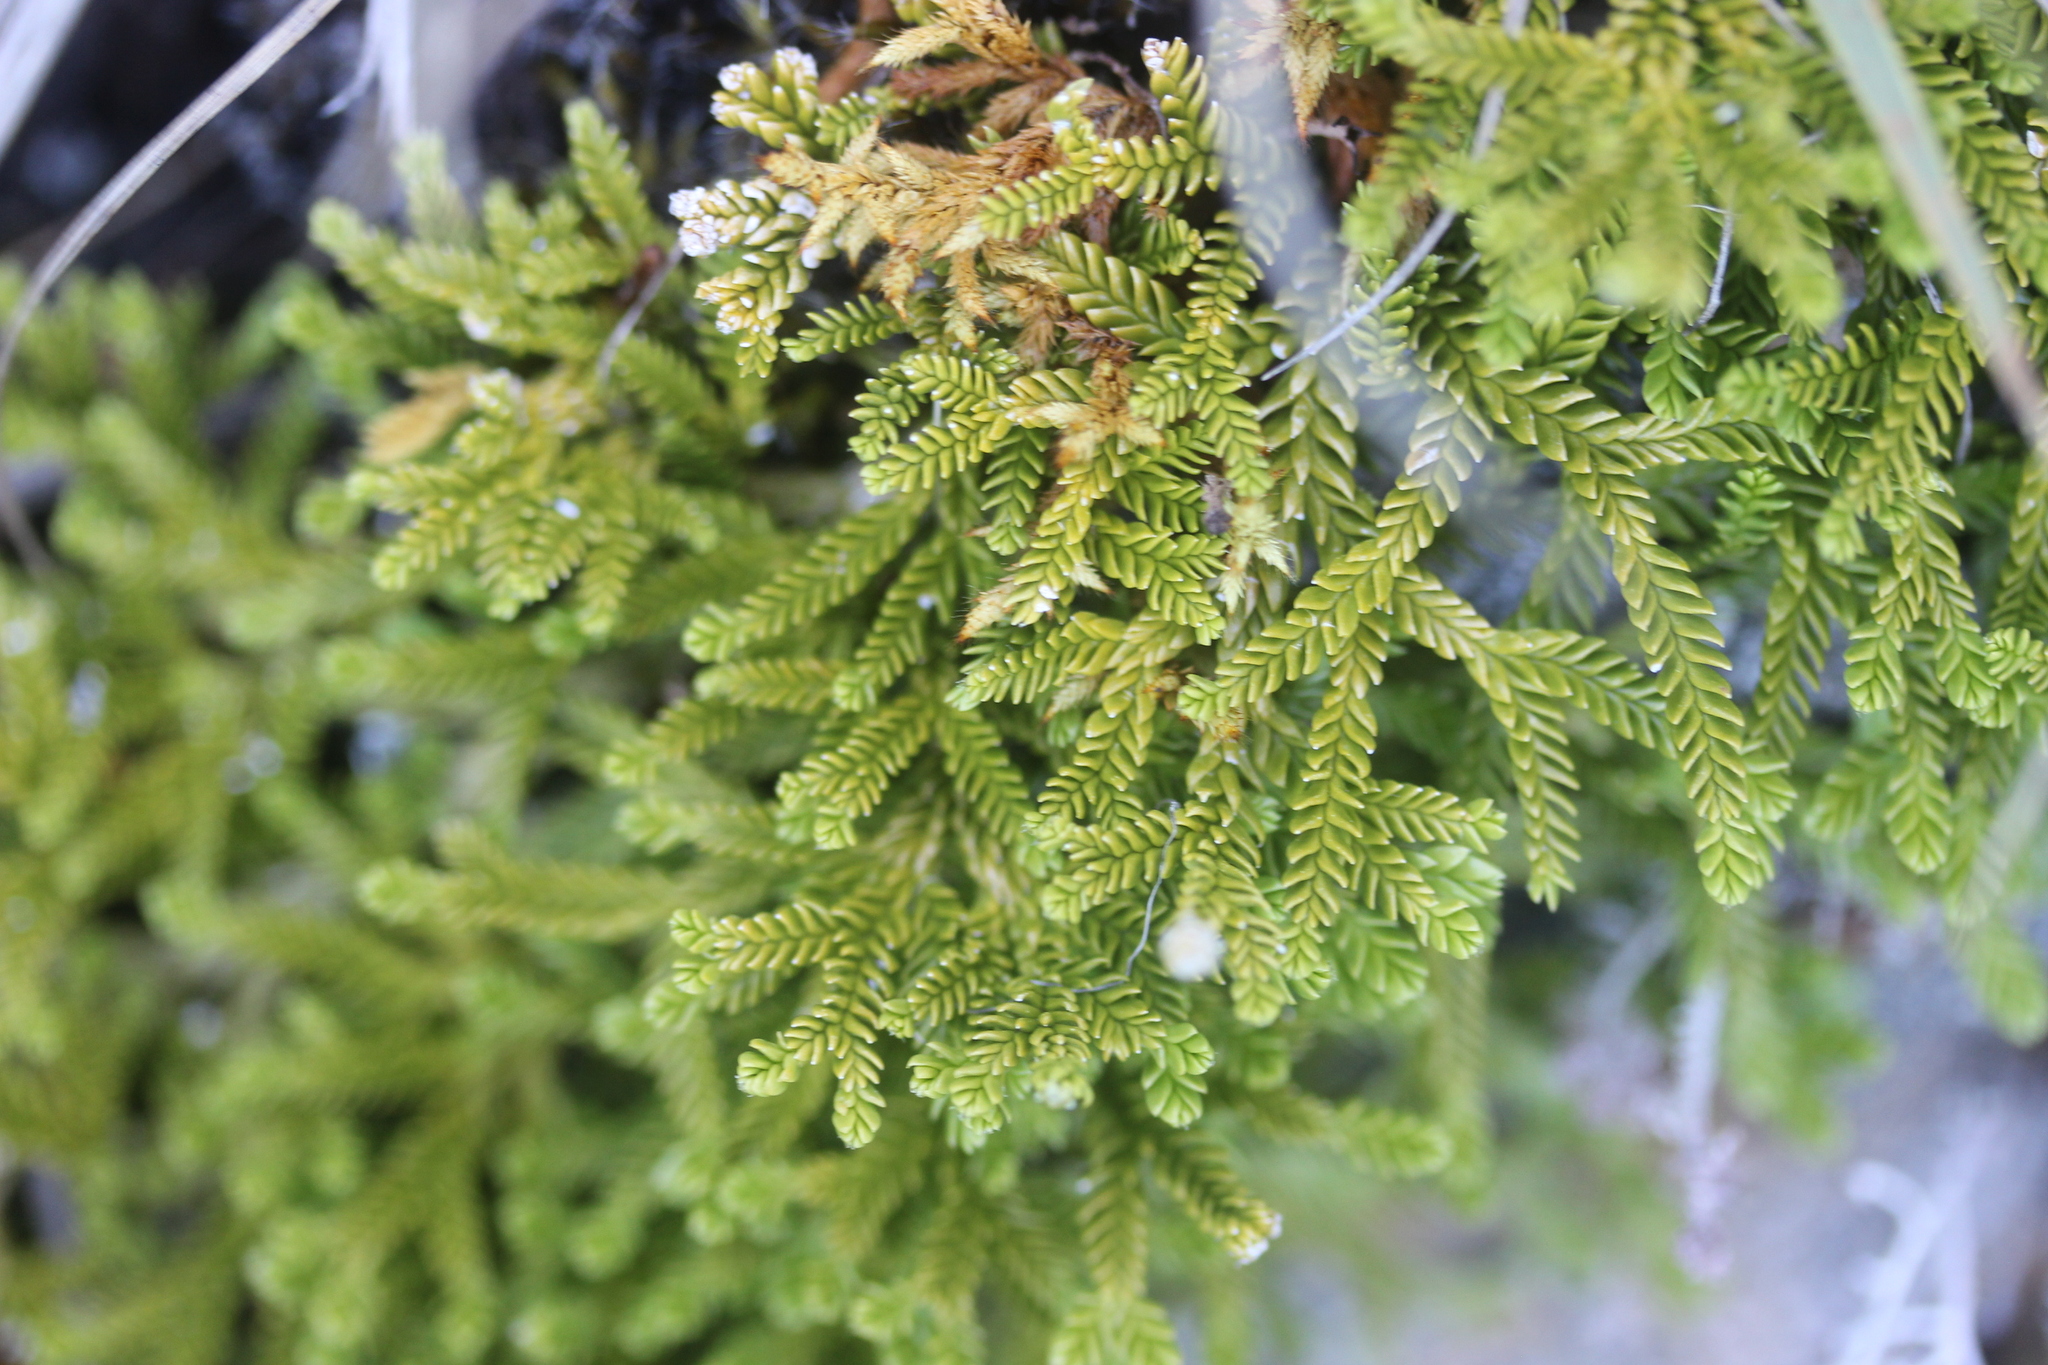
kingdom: Plantae
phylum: Tracheophyta
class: Lycopodiopsida
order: Lycopodiales
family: Lycopodiaceae
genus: Diphasium
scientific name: Diphasium scariosum
